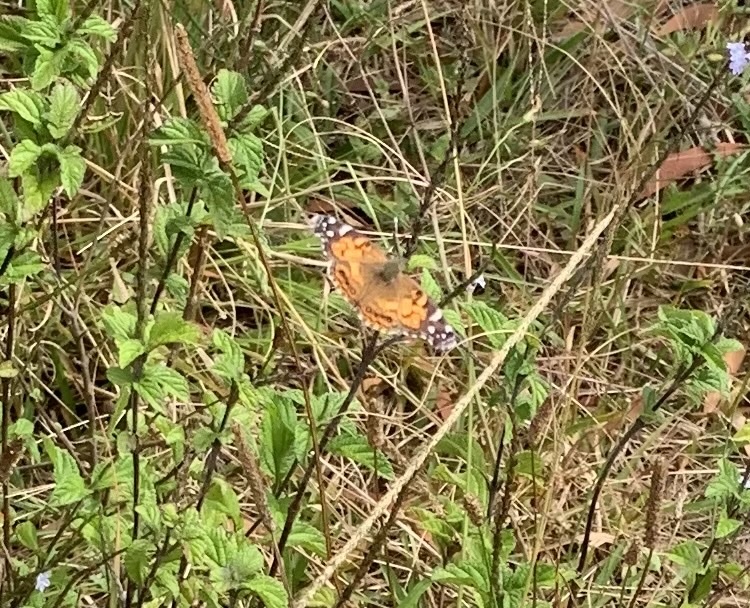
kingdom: Animalia
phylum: Arthropoda
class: Insecta
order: Lepidoptera
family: Nymphalidae
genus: Vanessa
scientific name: Vanessa virginiensis
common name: American lady
